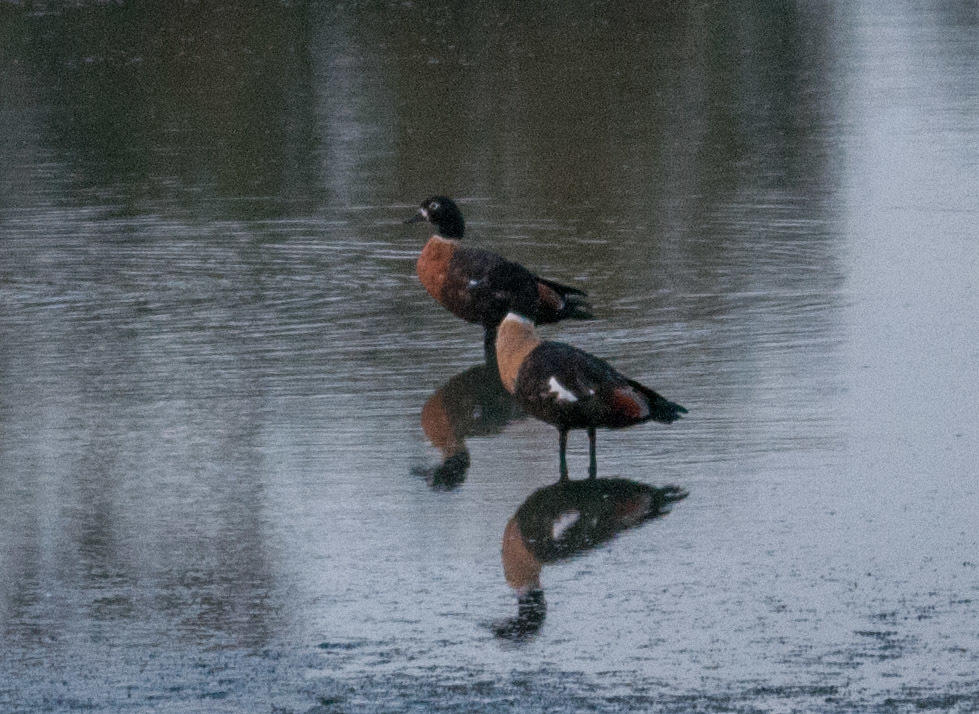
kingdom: Animalia
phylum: Chordata
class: Aves
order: Anseriformes
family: Anatidae
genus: Tadorna
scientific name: Tadorna tadornoides
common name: Australian shelduck
